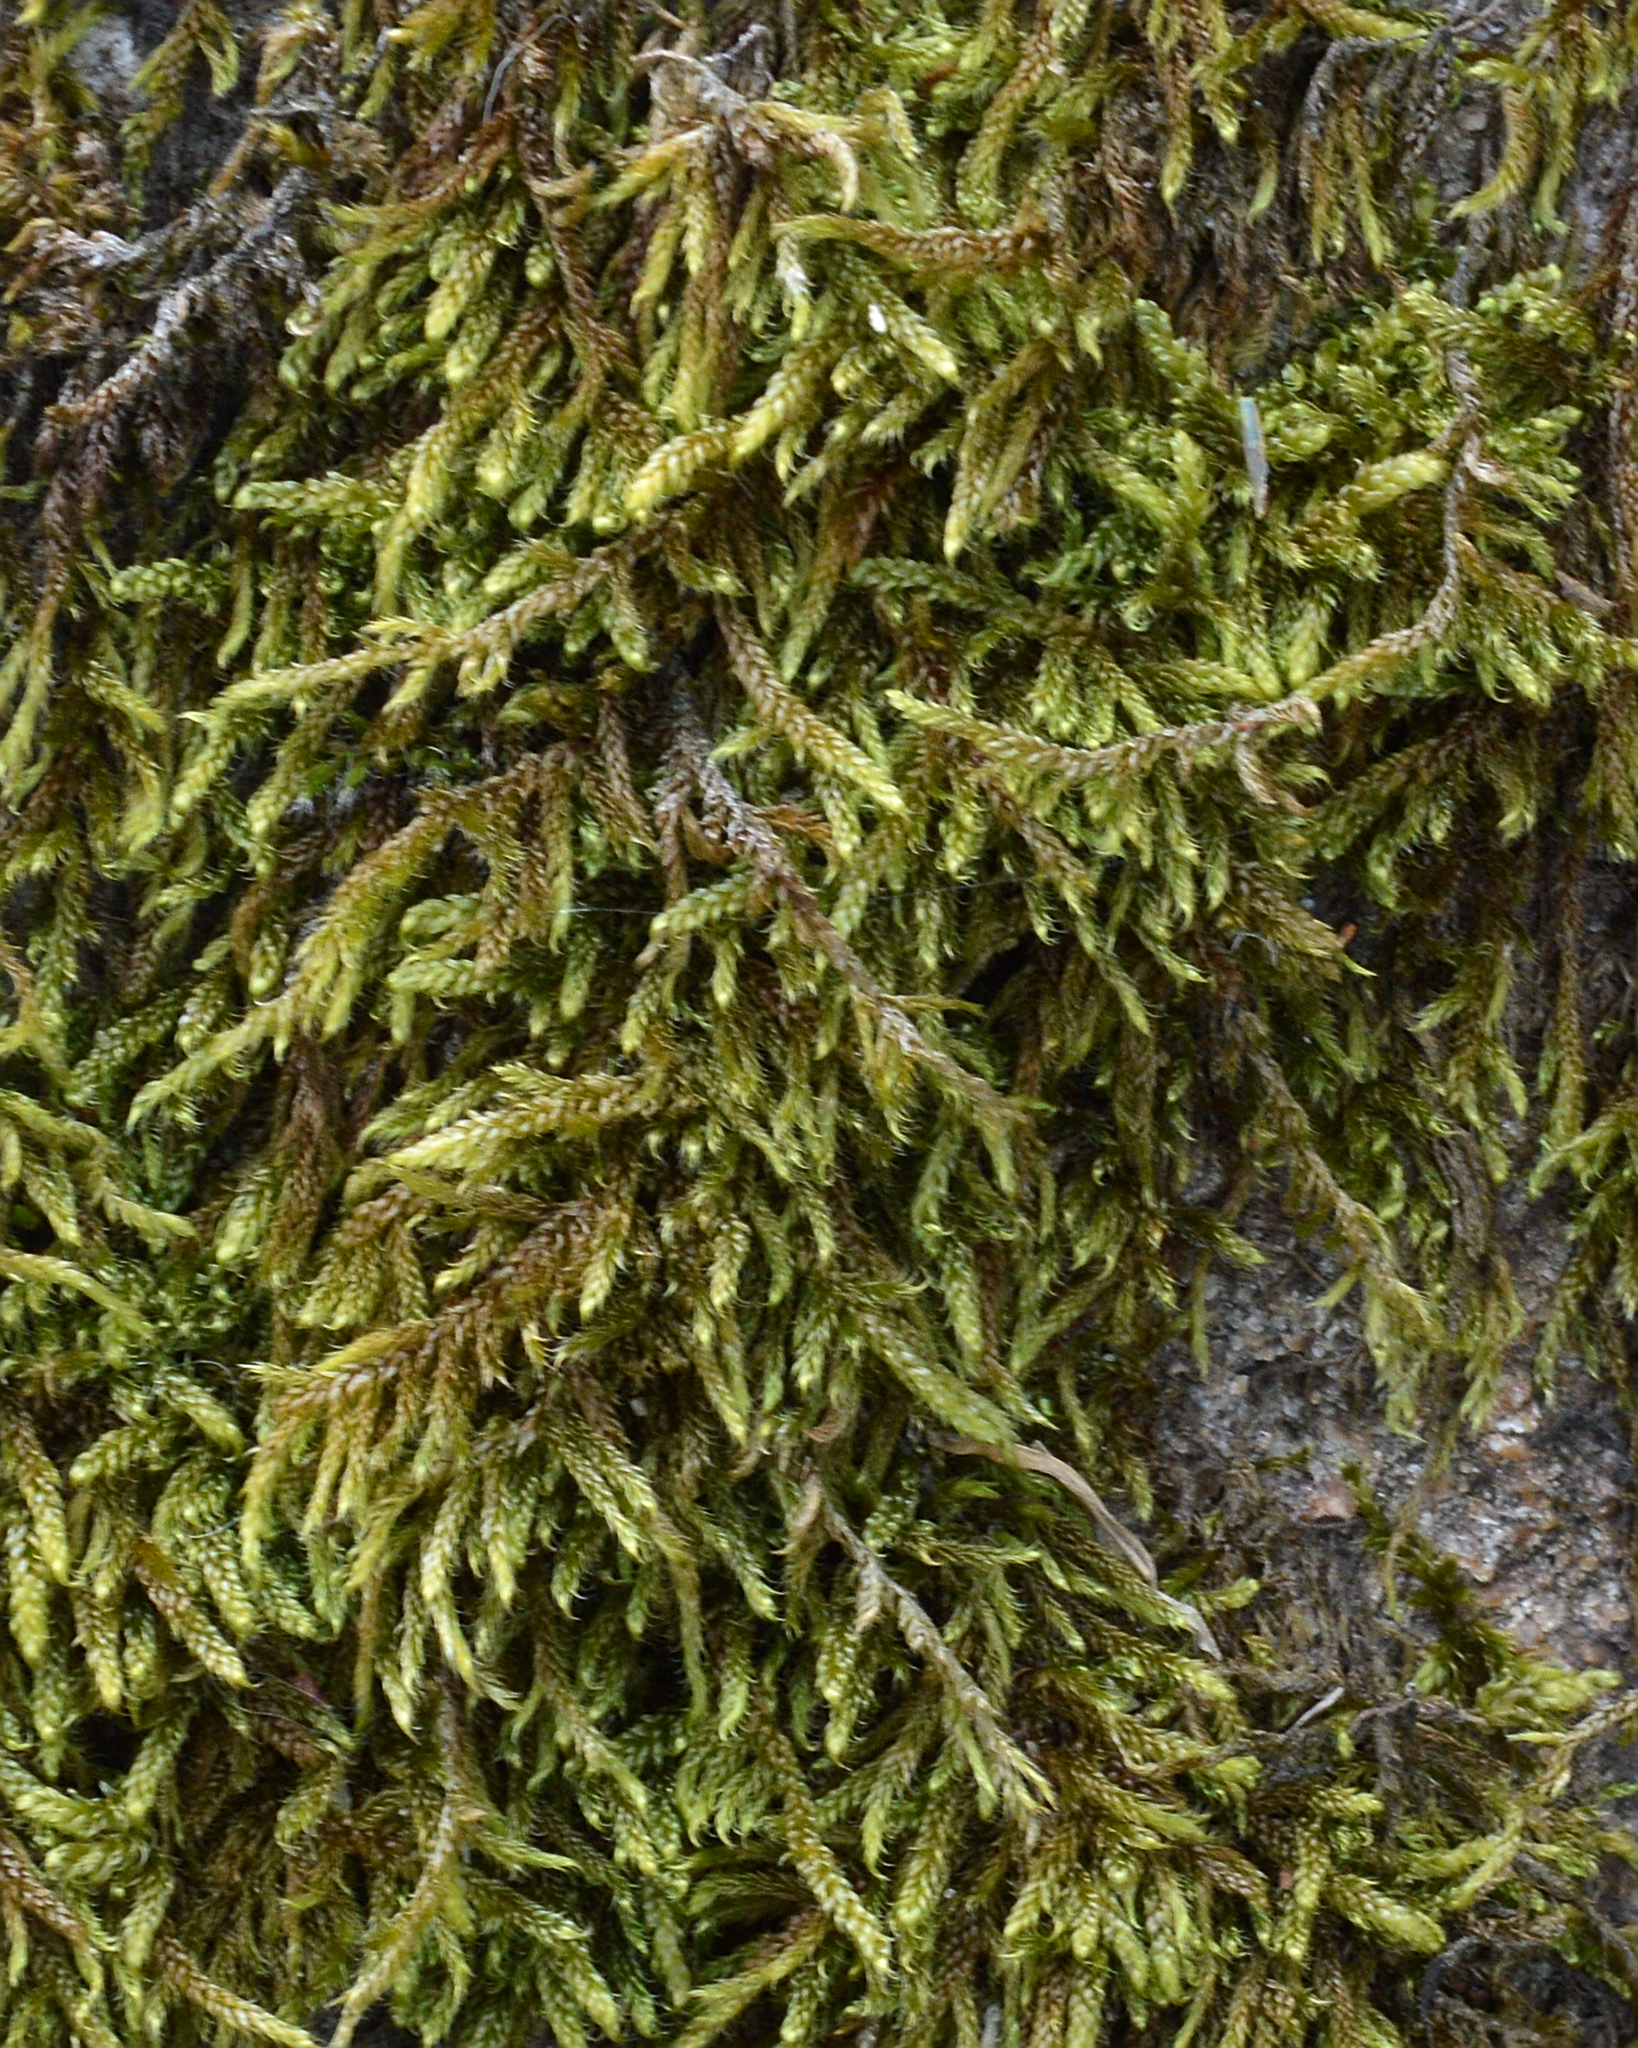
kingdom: Plantae
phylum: Bryophyta
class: Bryopsida
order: Hypnales
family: Hypnaceae
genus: Hypnum
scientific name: Hypnum cupressiforme
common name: Cypress-leaved plait-moss
